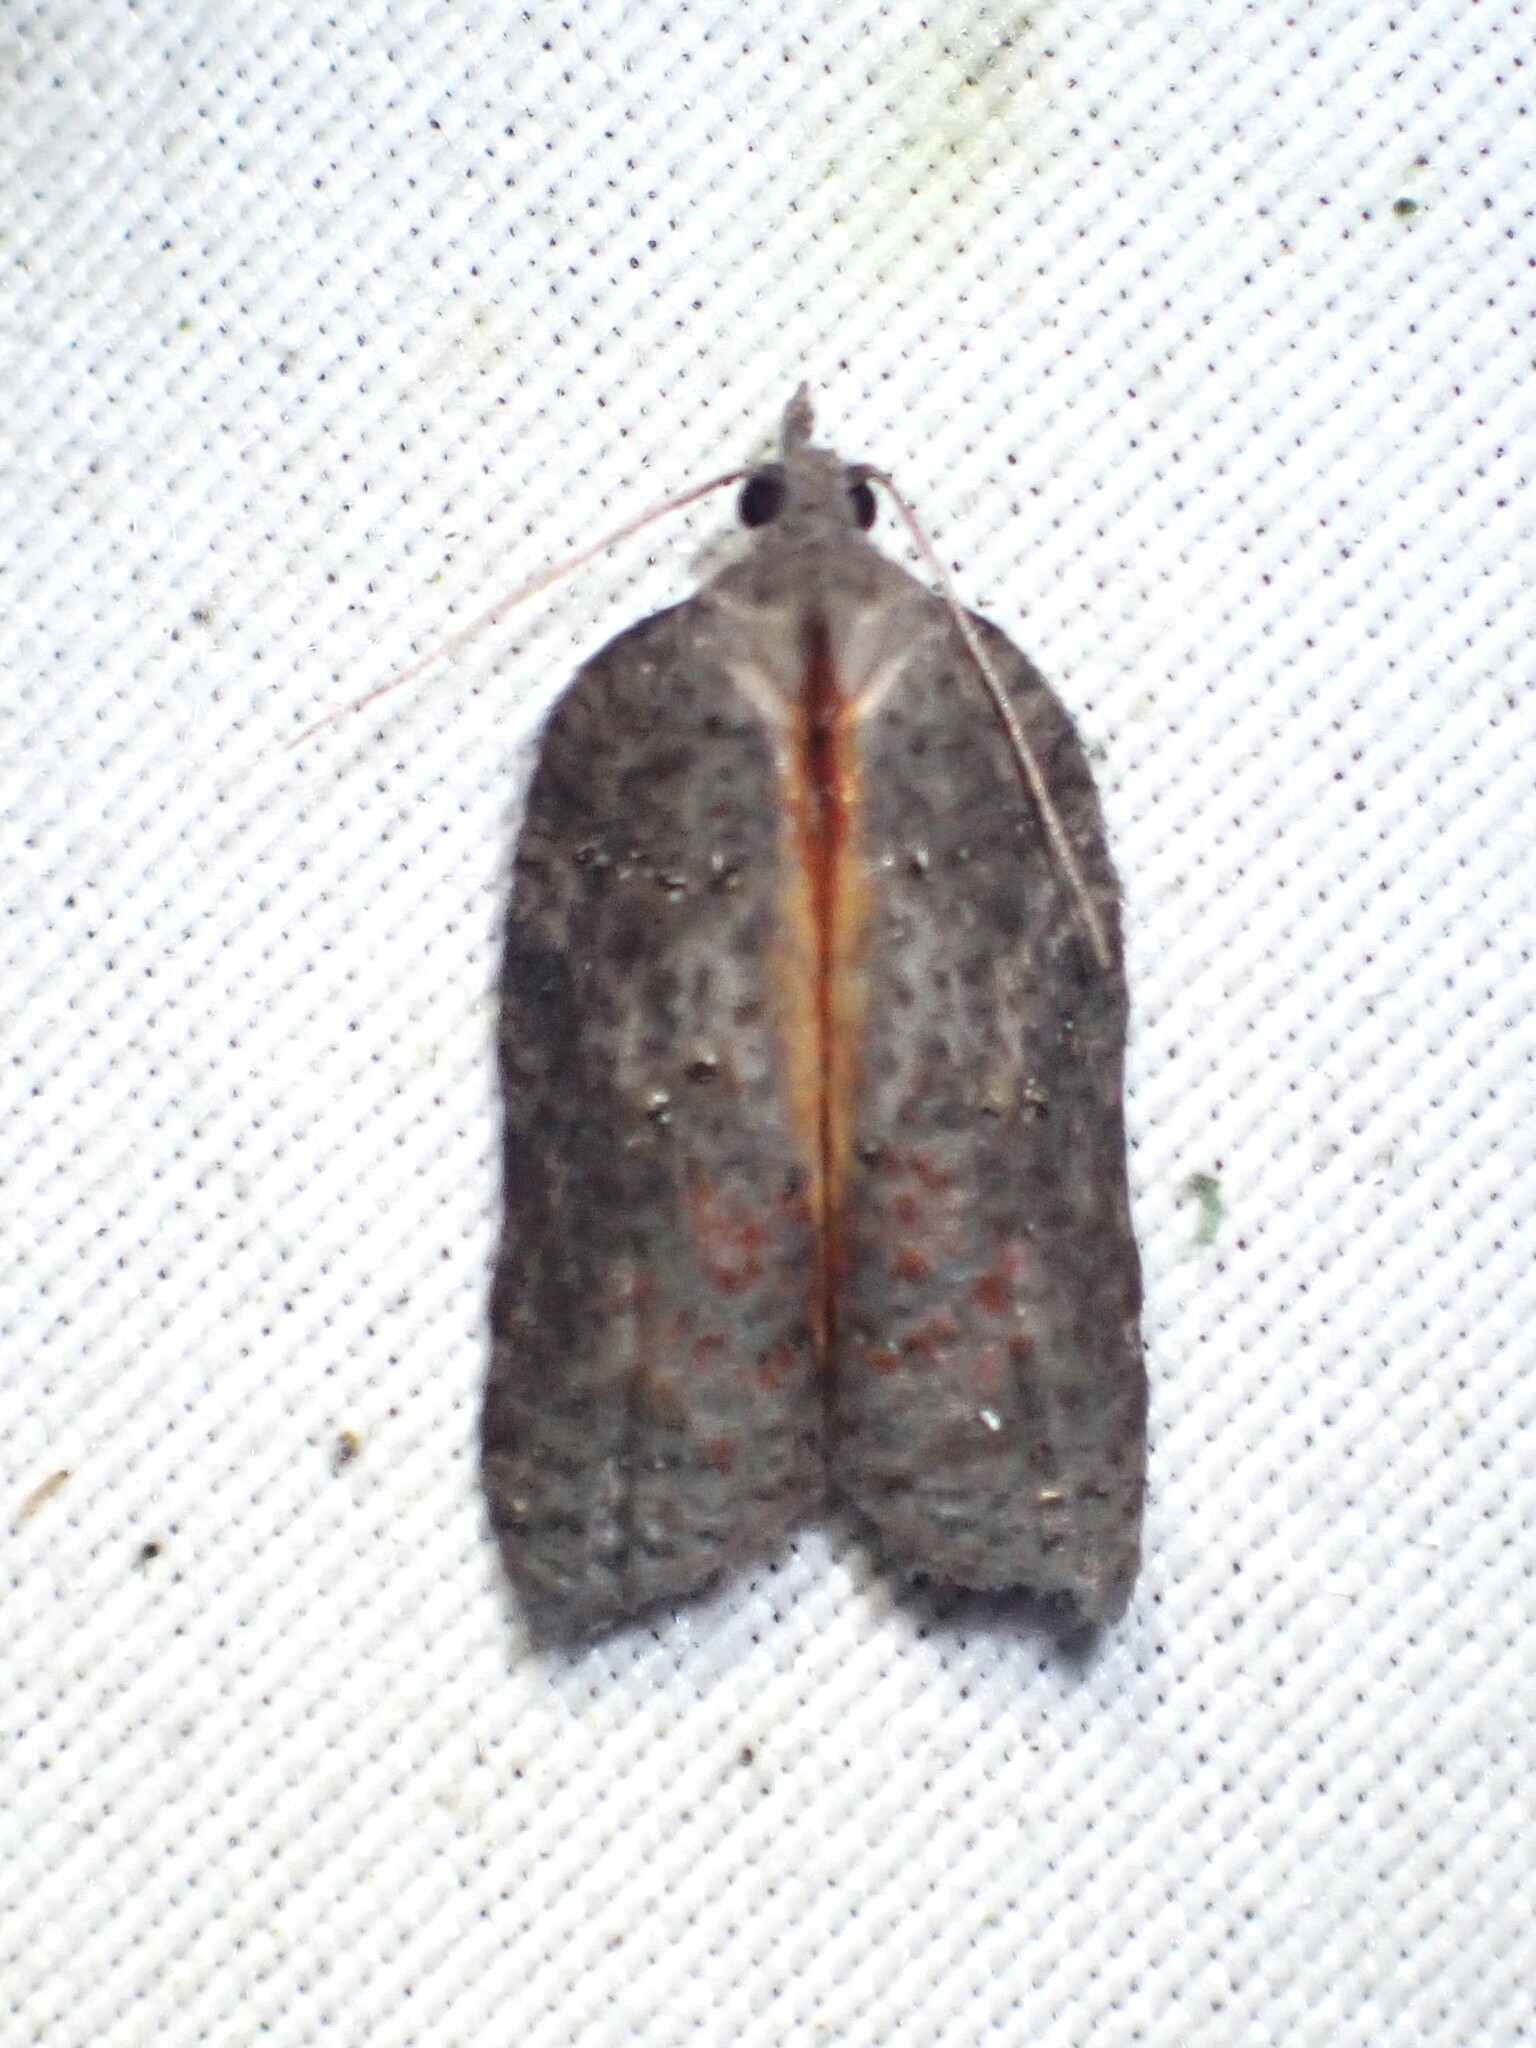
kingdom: Animalia
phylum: Arthropoda
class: Insecta
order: Lepidoptera
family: Tortricidae
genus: Acleris
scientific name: Acleris effractana
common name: Hook-winged tortrix moth
